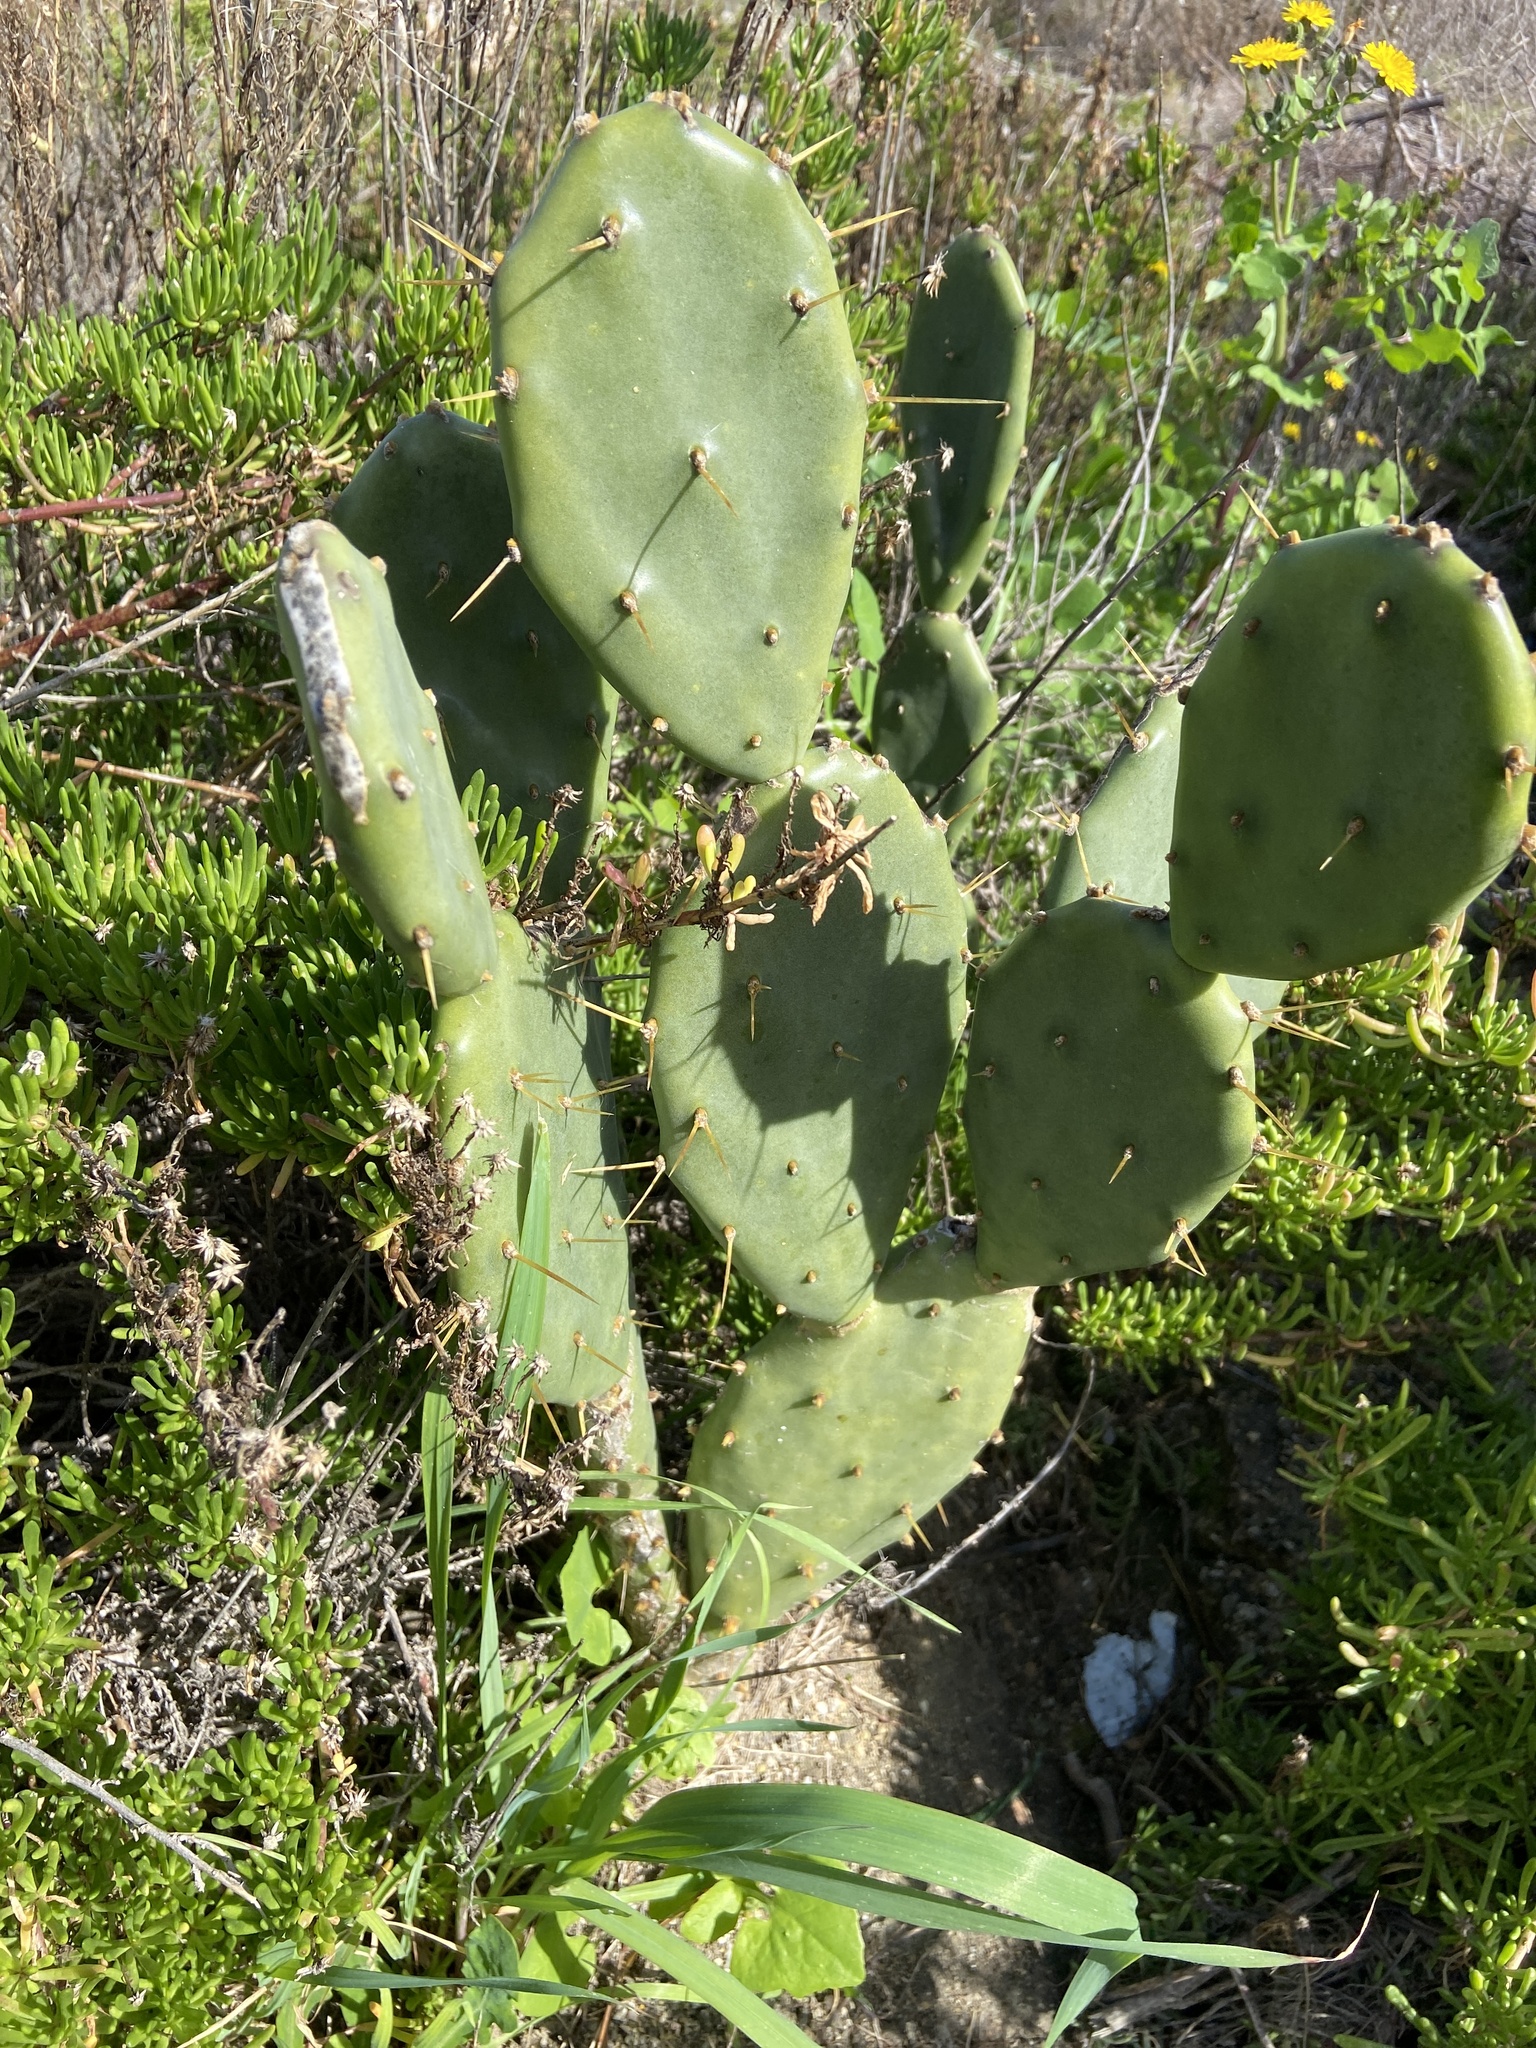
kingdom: Plantae
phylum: Tracheophyta
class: Magnoliopsida
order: Caryophyllales
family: Cactaceae
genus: Opuntia
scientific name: Opuntia stricta
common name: Erect pricklypear
